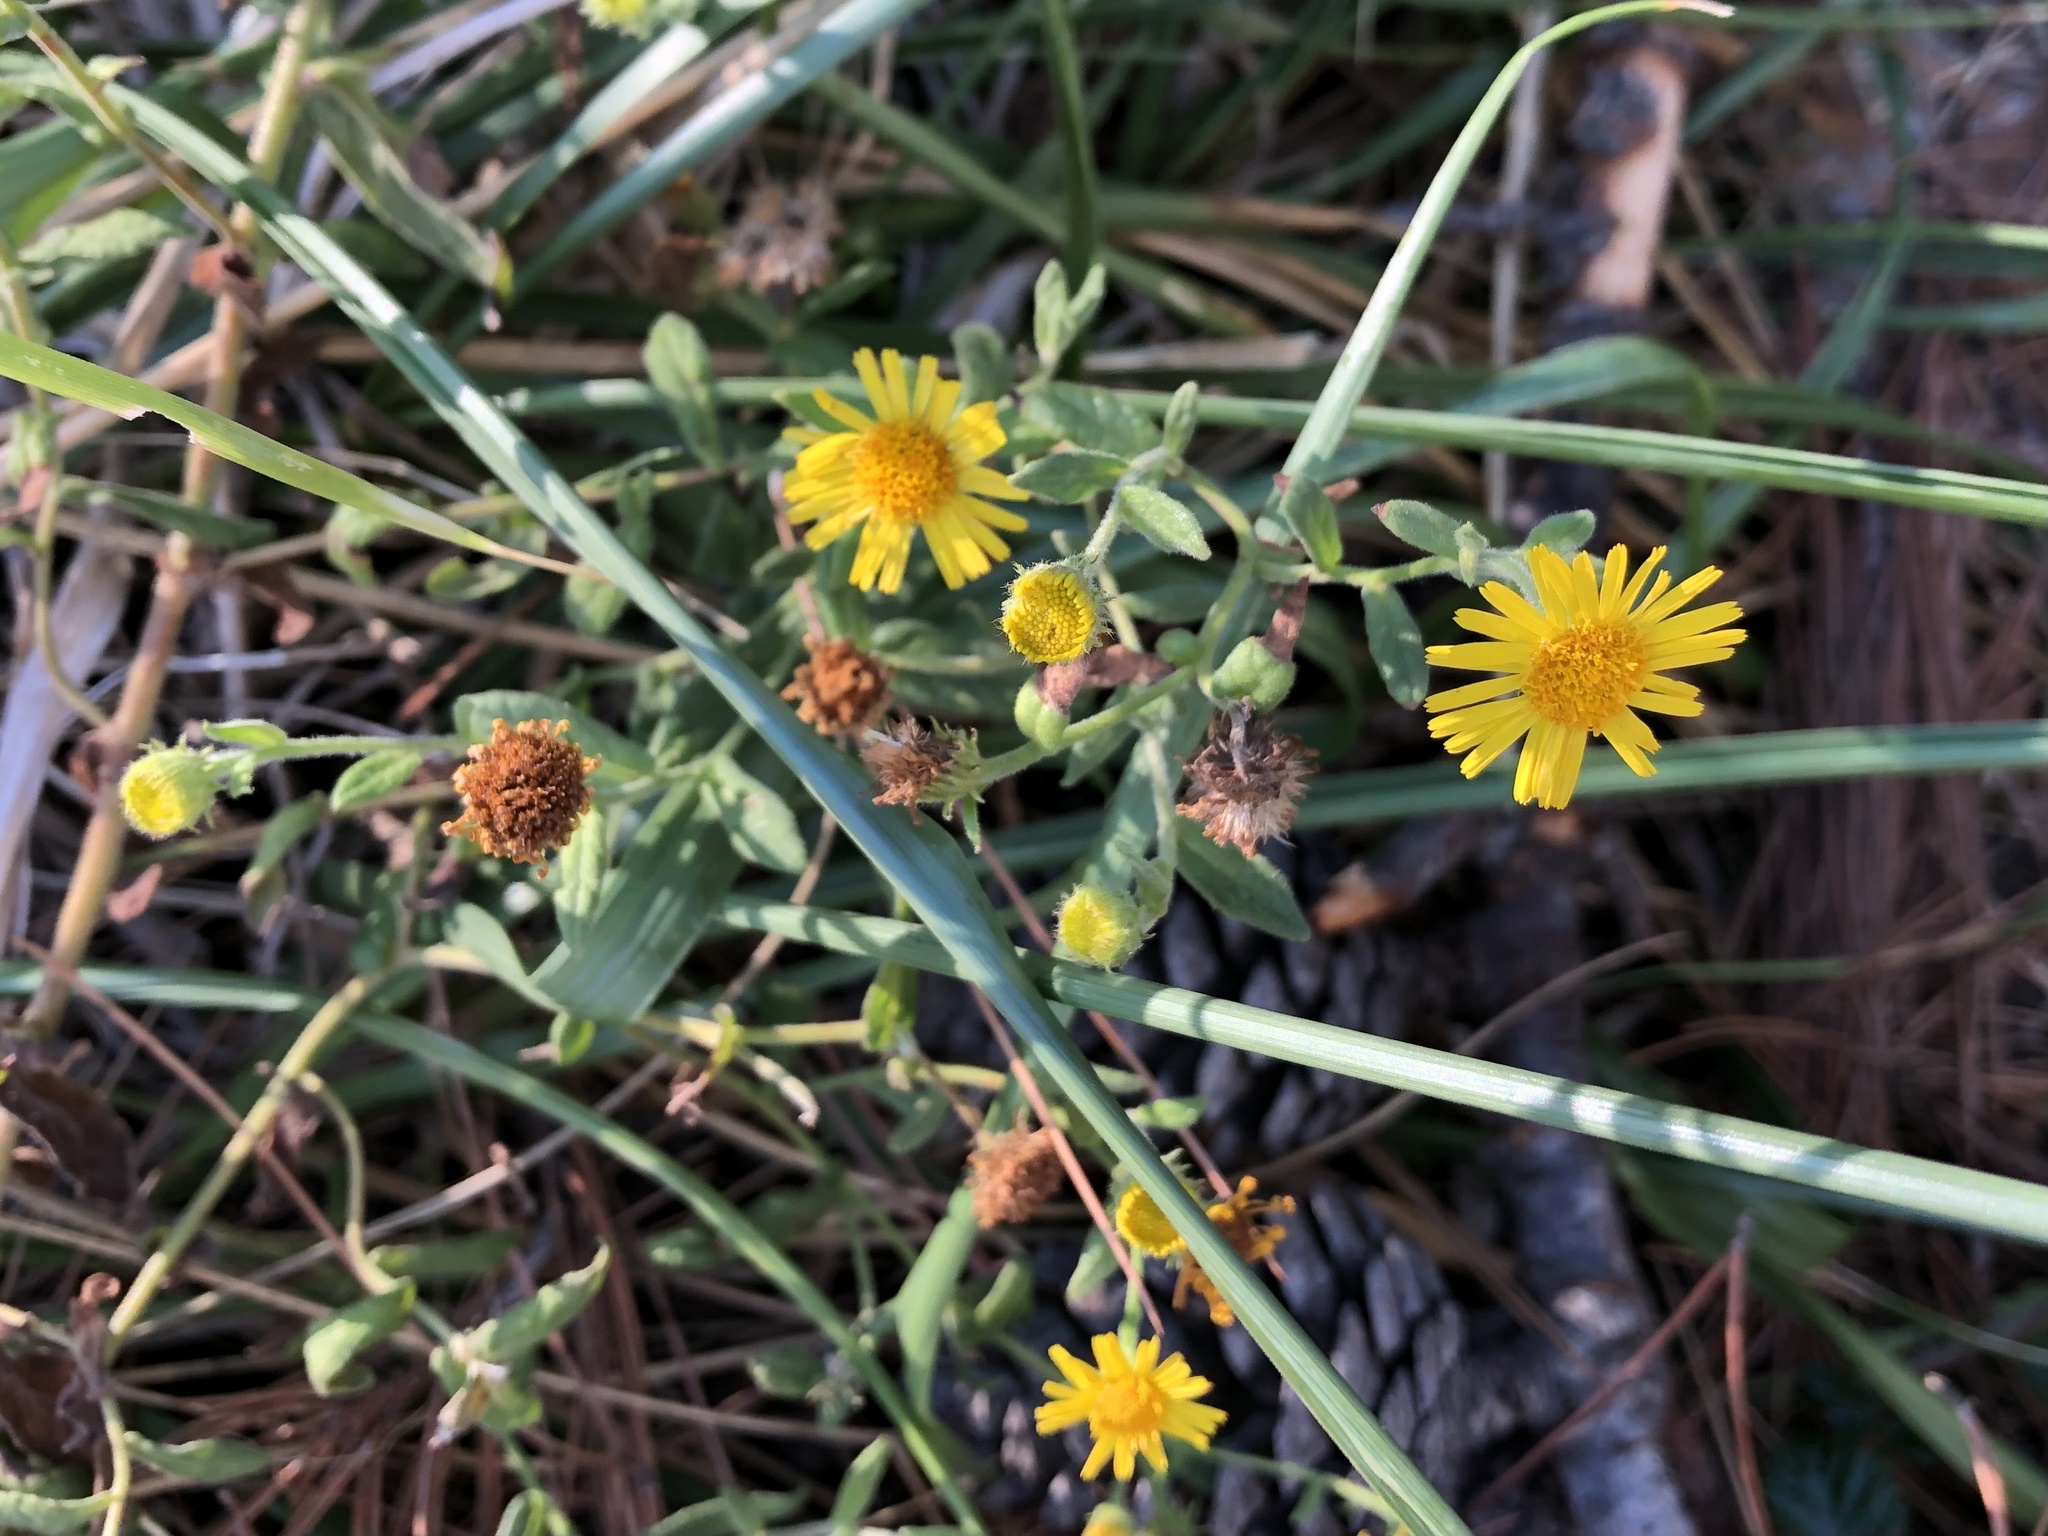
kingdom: Plantae
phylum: Tracheophyta
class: Magnoliopsida
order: Asterales
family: Asteraceae
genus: Pulicaria
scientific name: Pulicaria dysenterica
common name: Common fleabane
